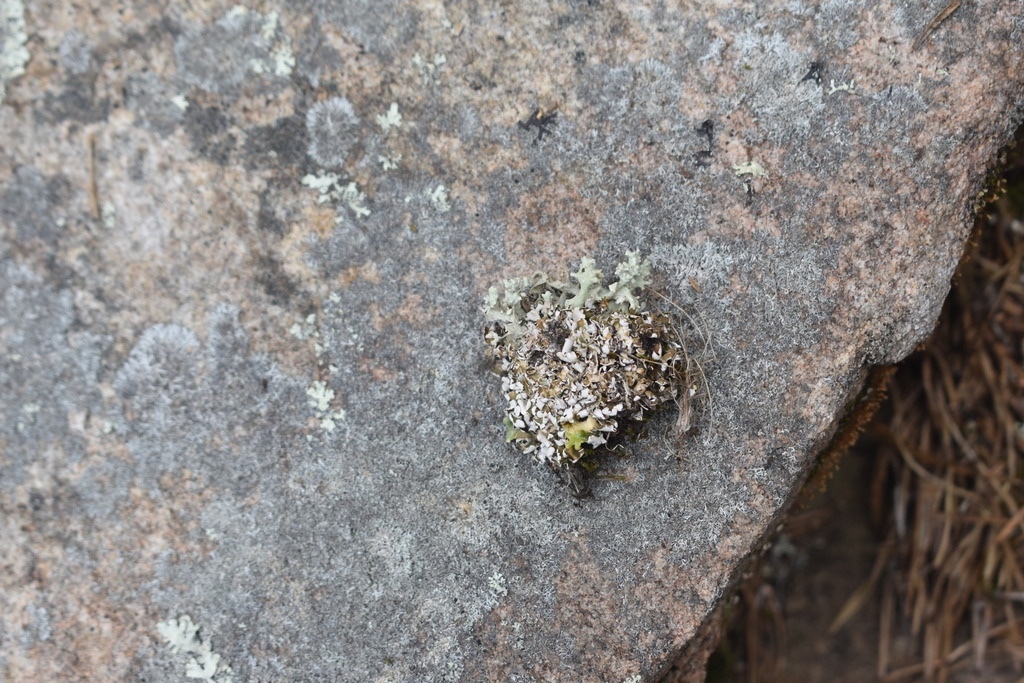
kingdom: Fungi
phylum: Ascomycota
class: Lecanoromycetes
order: Lecanorales
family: Cladoniaceae
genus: Cladonia
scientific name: Cladonia strepsilis
